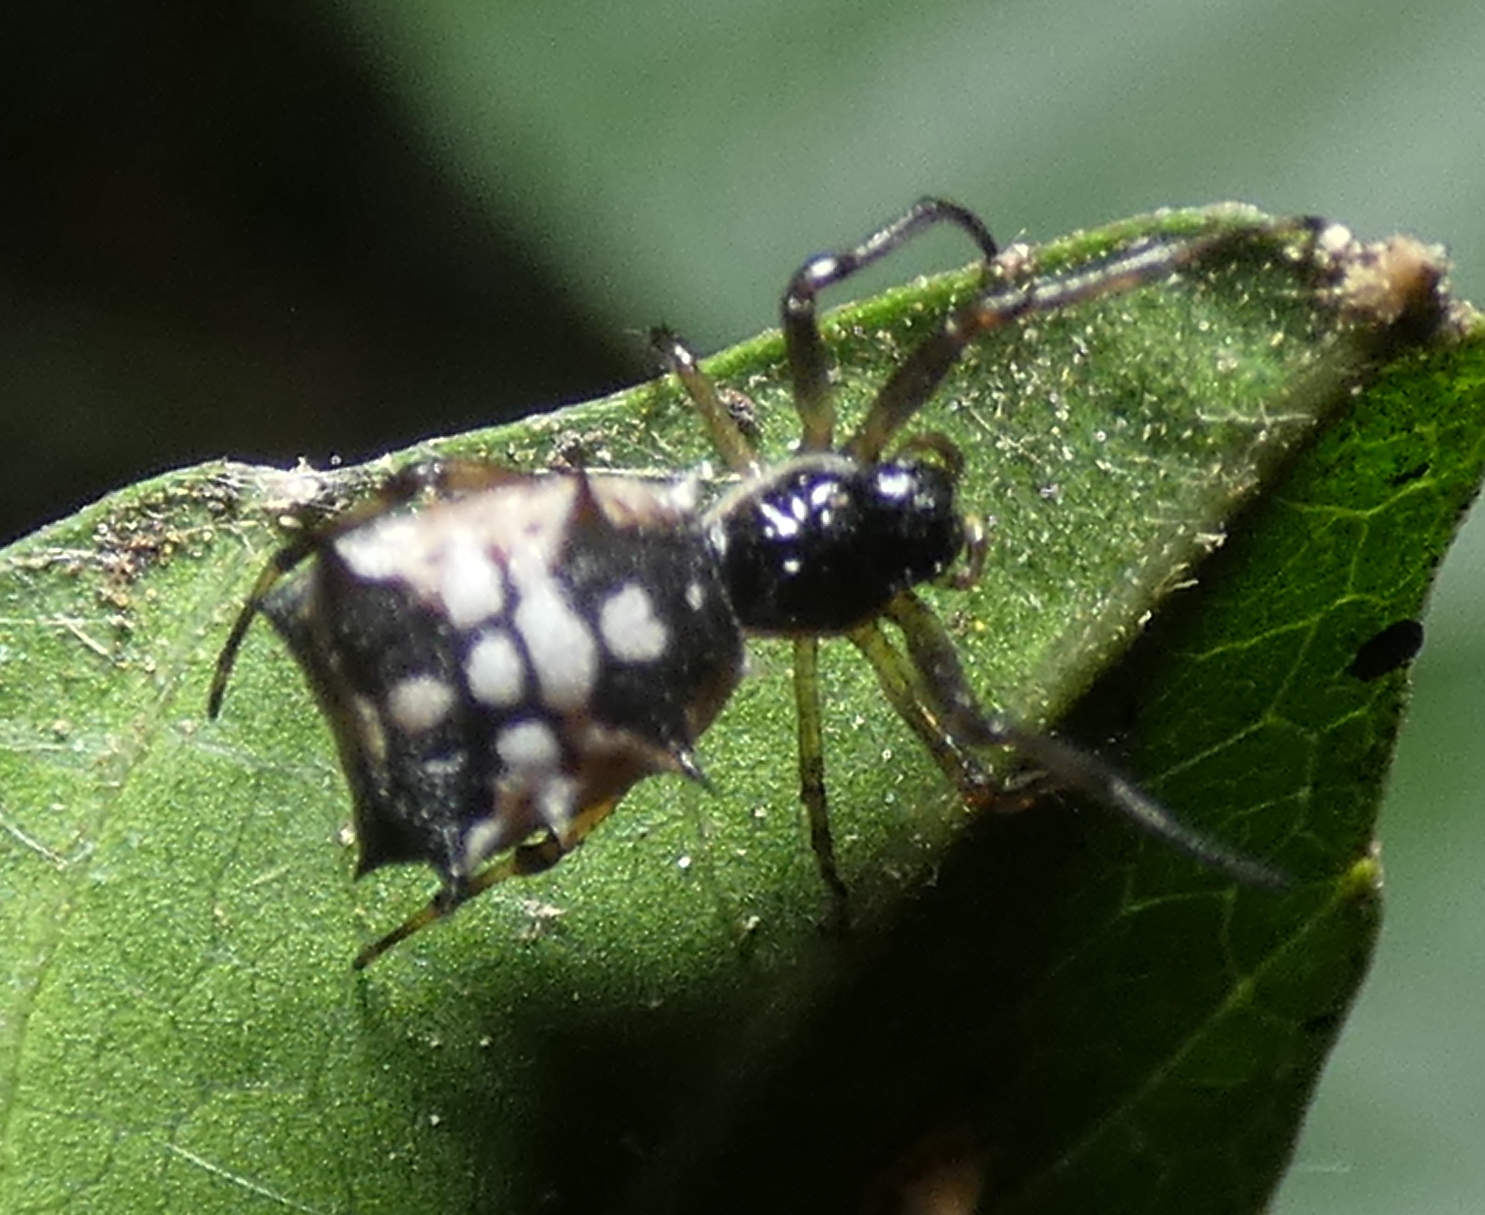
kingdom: Animalia
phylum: Arthropoda
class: Arachnida
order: Araneae
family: Araneidae
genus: Micrathena
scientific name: Micrathena picta
